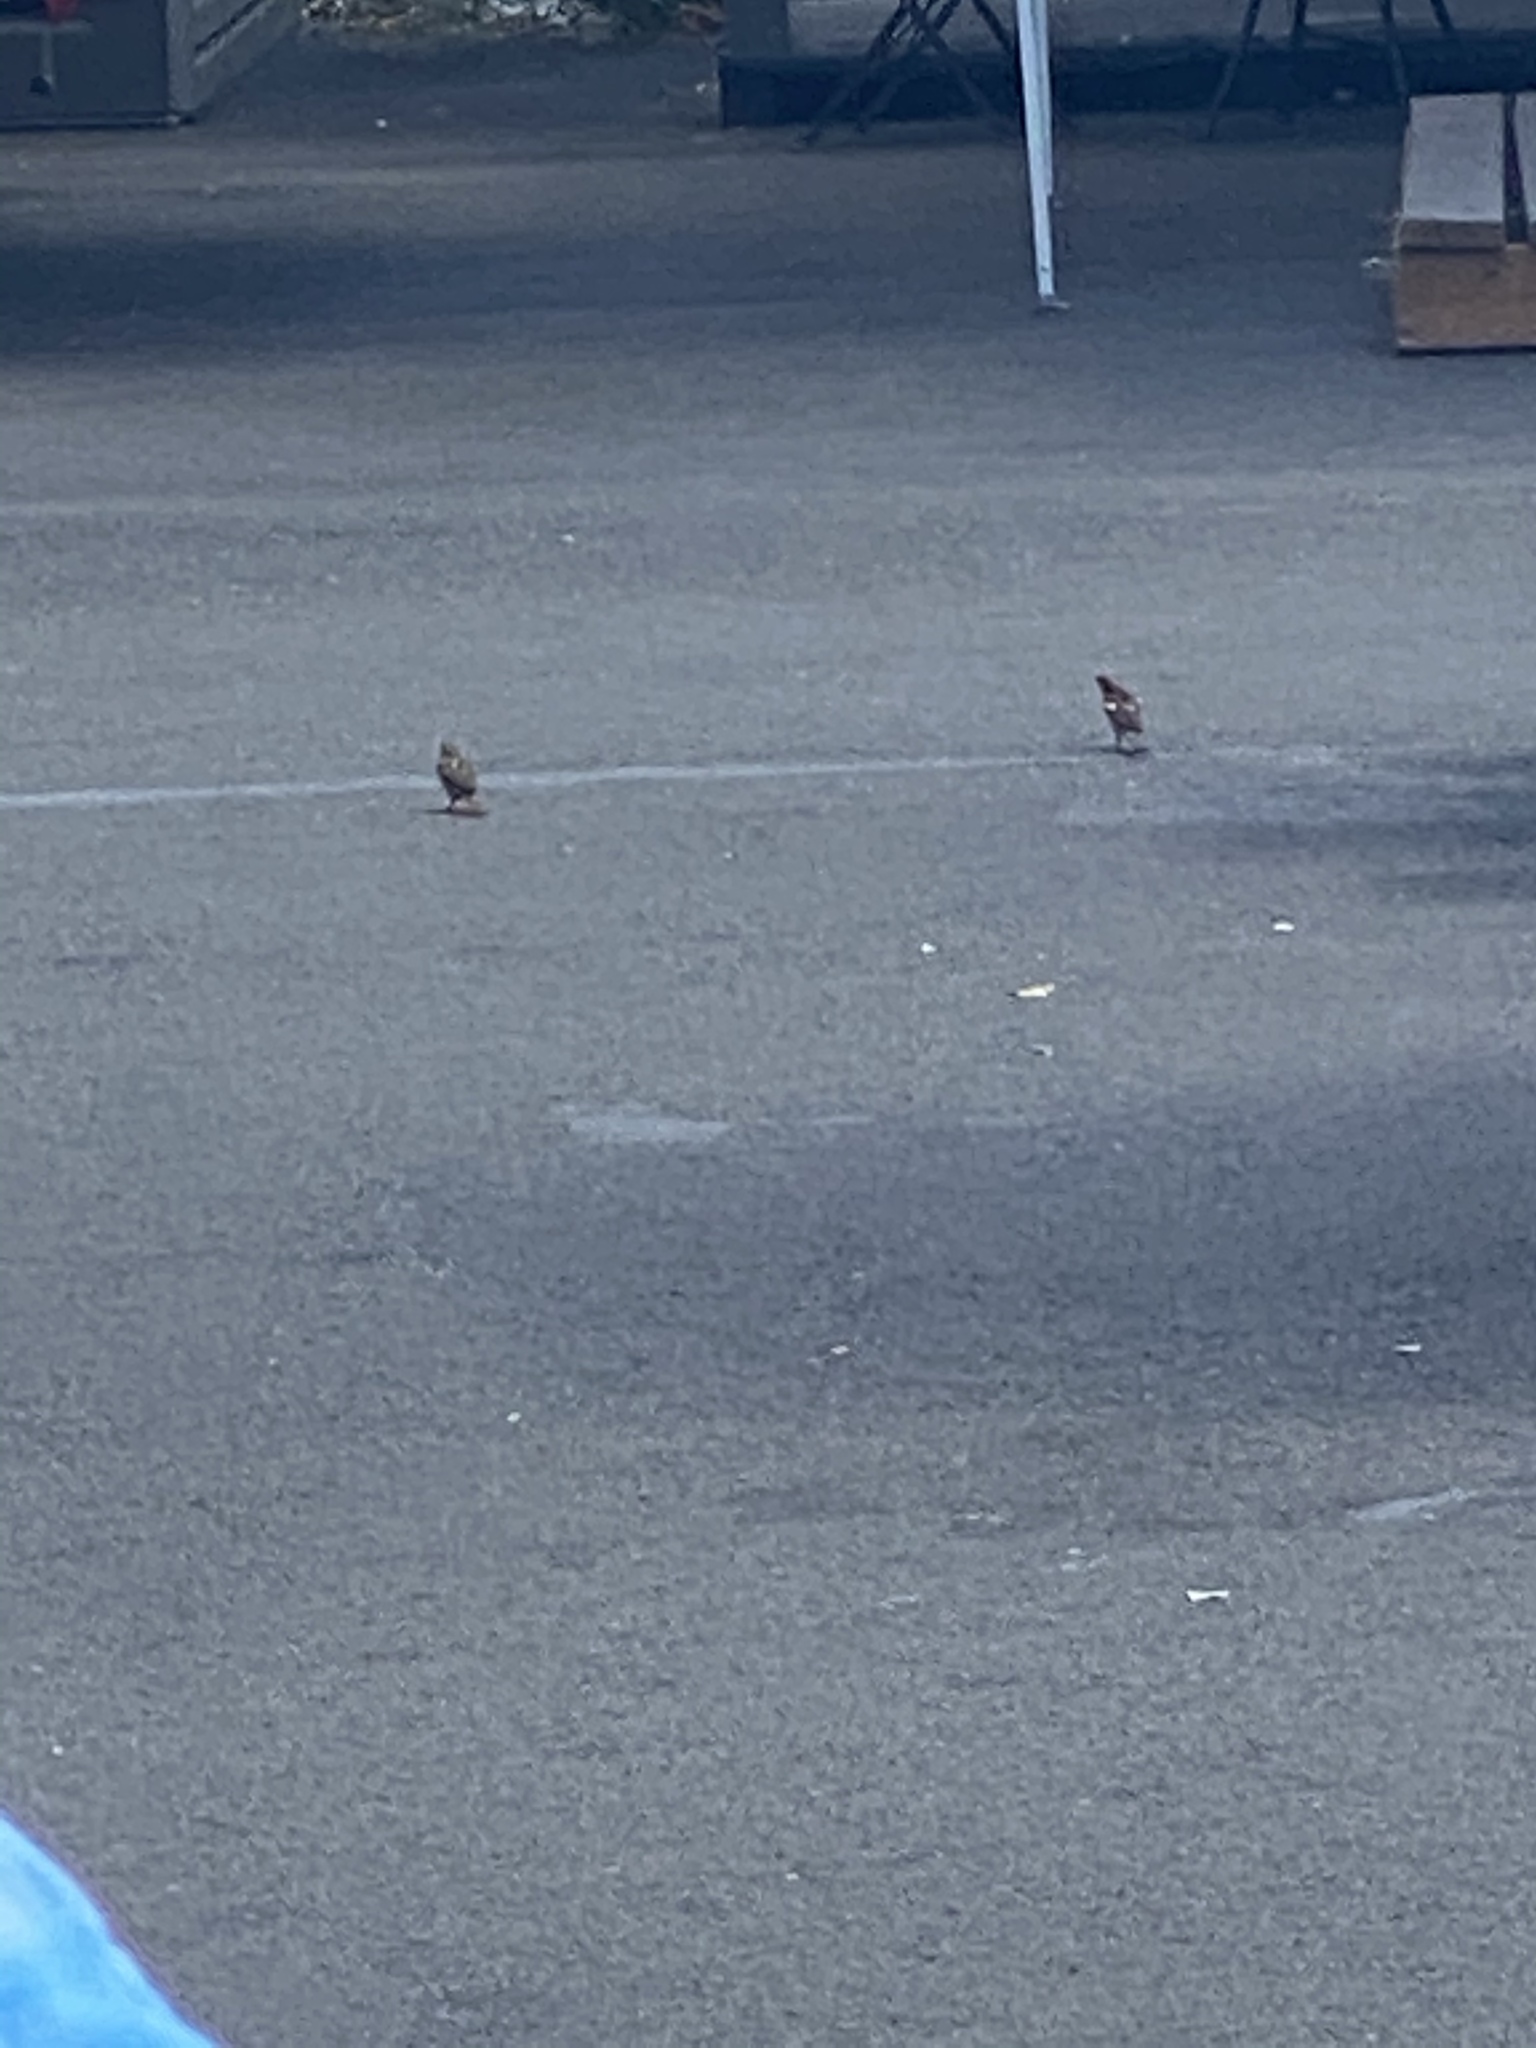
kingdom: Animalia
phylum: Chordata
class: Aves
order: Passeriformes
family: Passeridae
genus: Passer
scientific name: Passer domesticus
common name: House sparrow
